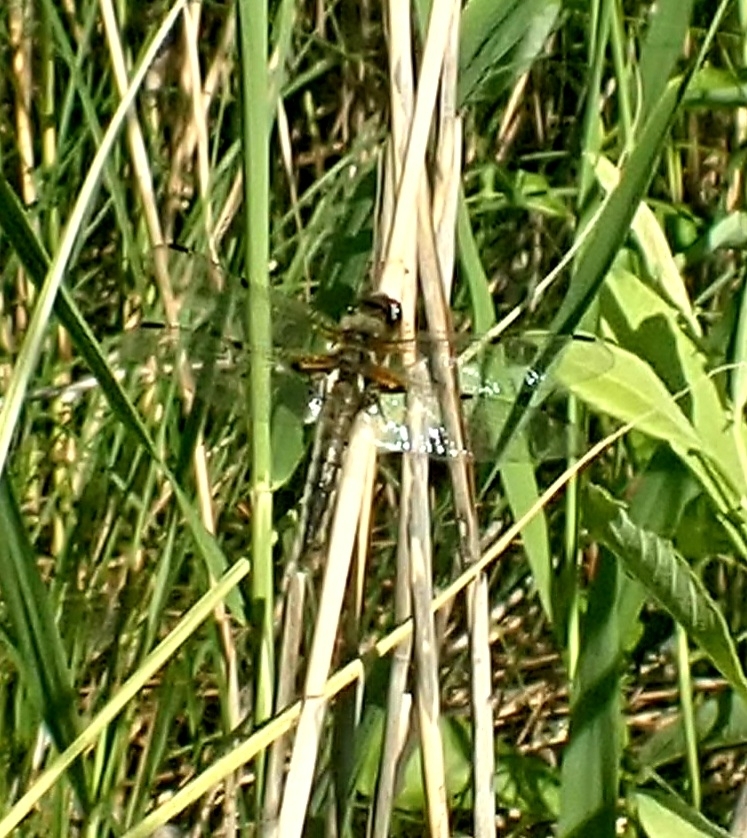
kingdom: Animalia
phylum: Arthropoda
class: Insecta
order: Odonata
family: Libellulidae
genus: Libellula
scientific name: Libellula quadrimaculata
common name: Four-spotted chaser
